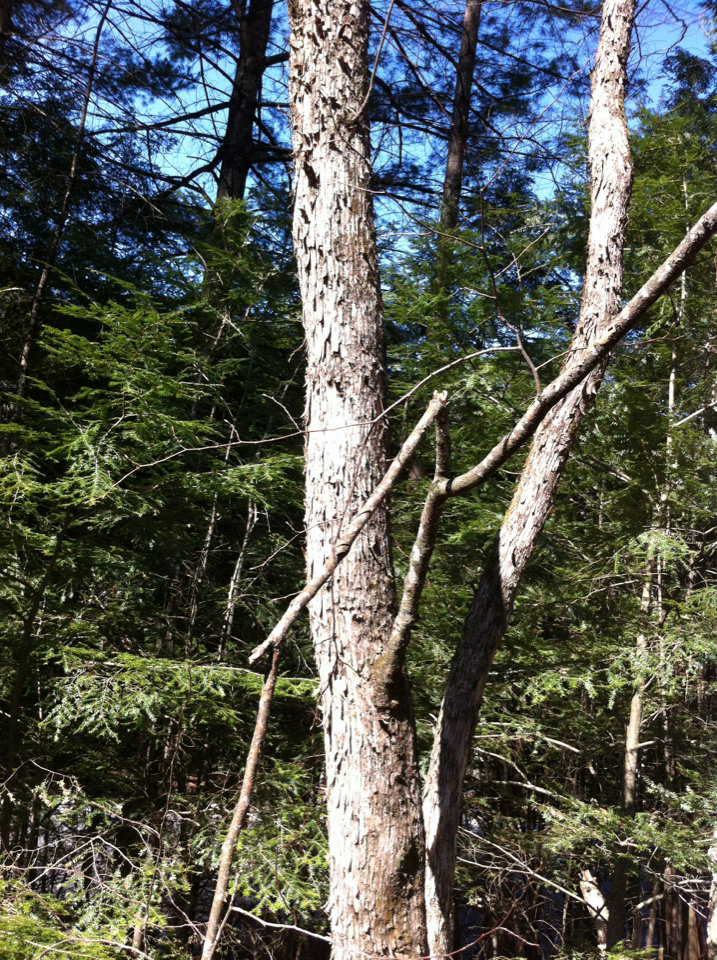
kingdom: Plantae
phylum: Tracheophyta
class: Magnoliopsida
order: Fagales
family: Betulaceae
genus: Ostrya
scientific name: Ostrya virginiana
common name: Ironwood
